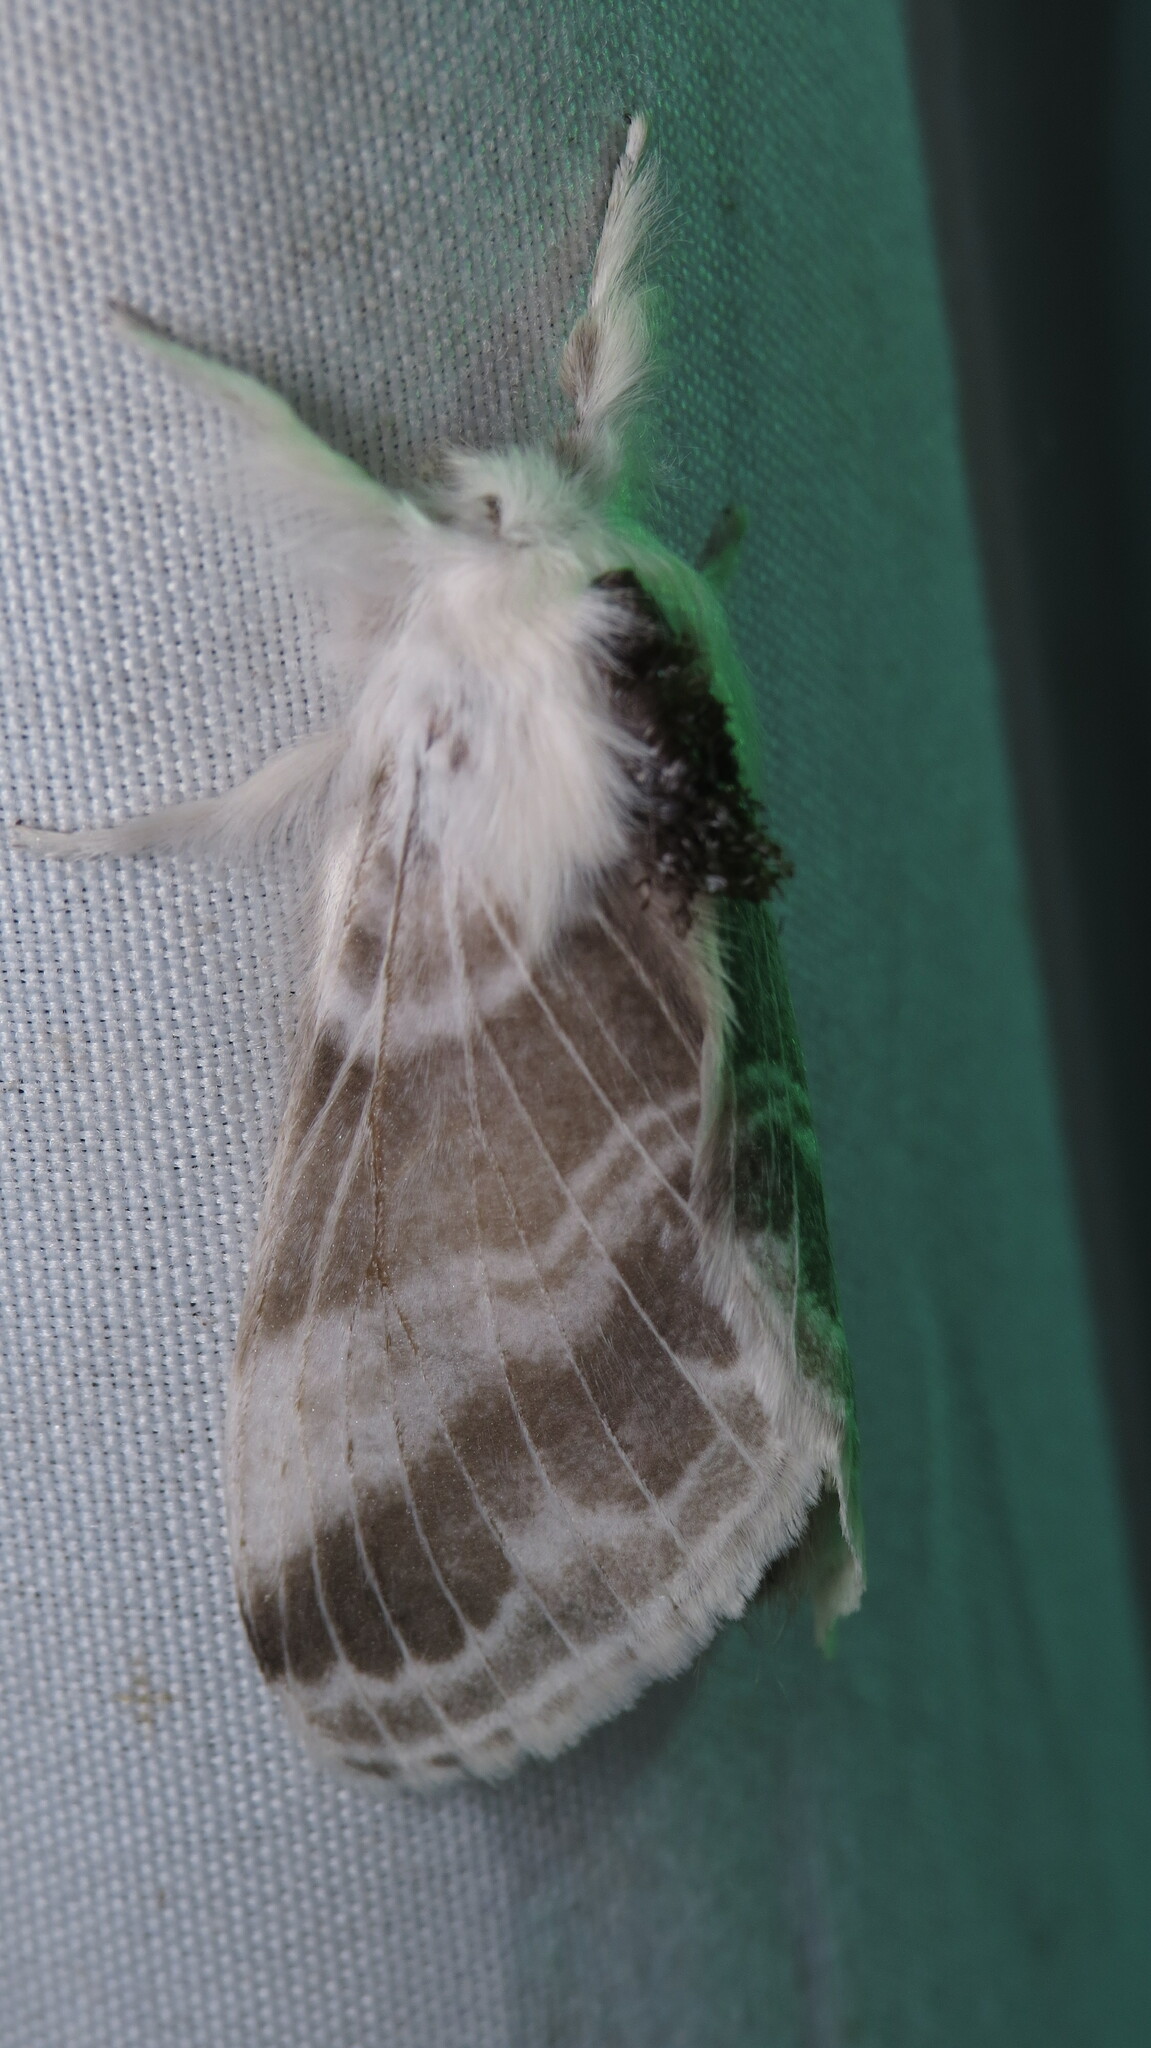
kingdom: Animalia
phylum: Arthropoda
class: Insecta
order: Lepidoptera
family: Lasiocampidae
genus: Tolype
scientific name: Tolype velleda
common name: Large tolype moth
